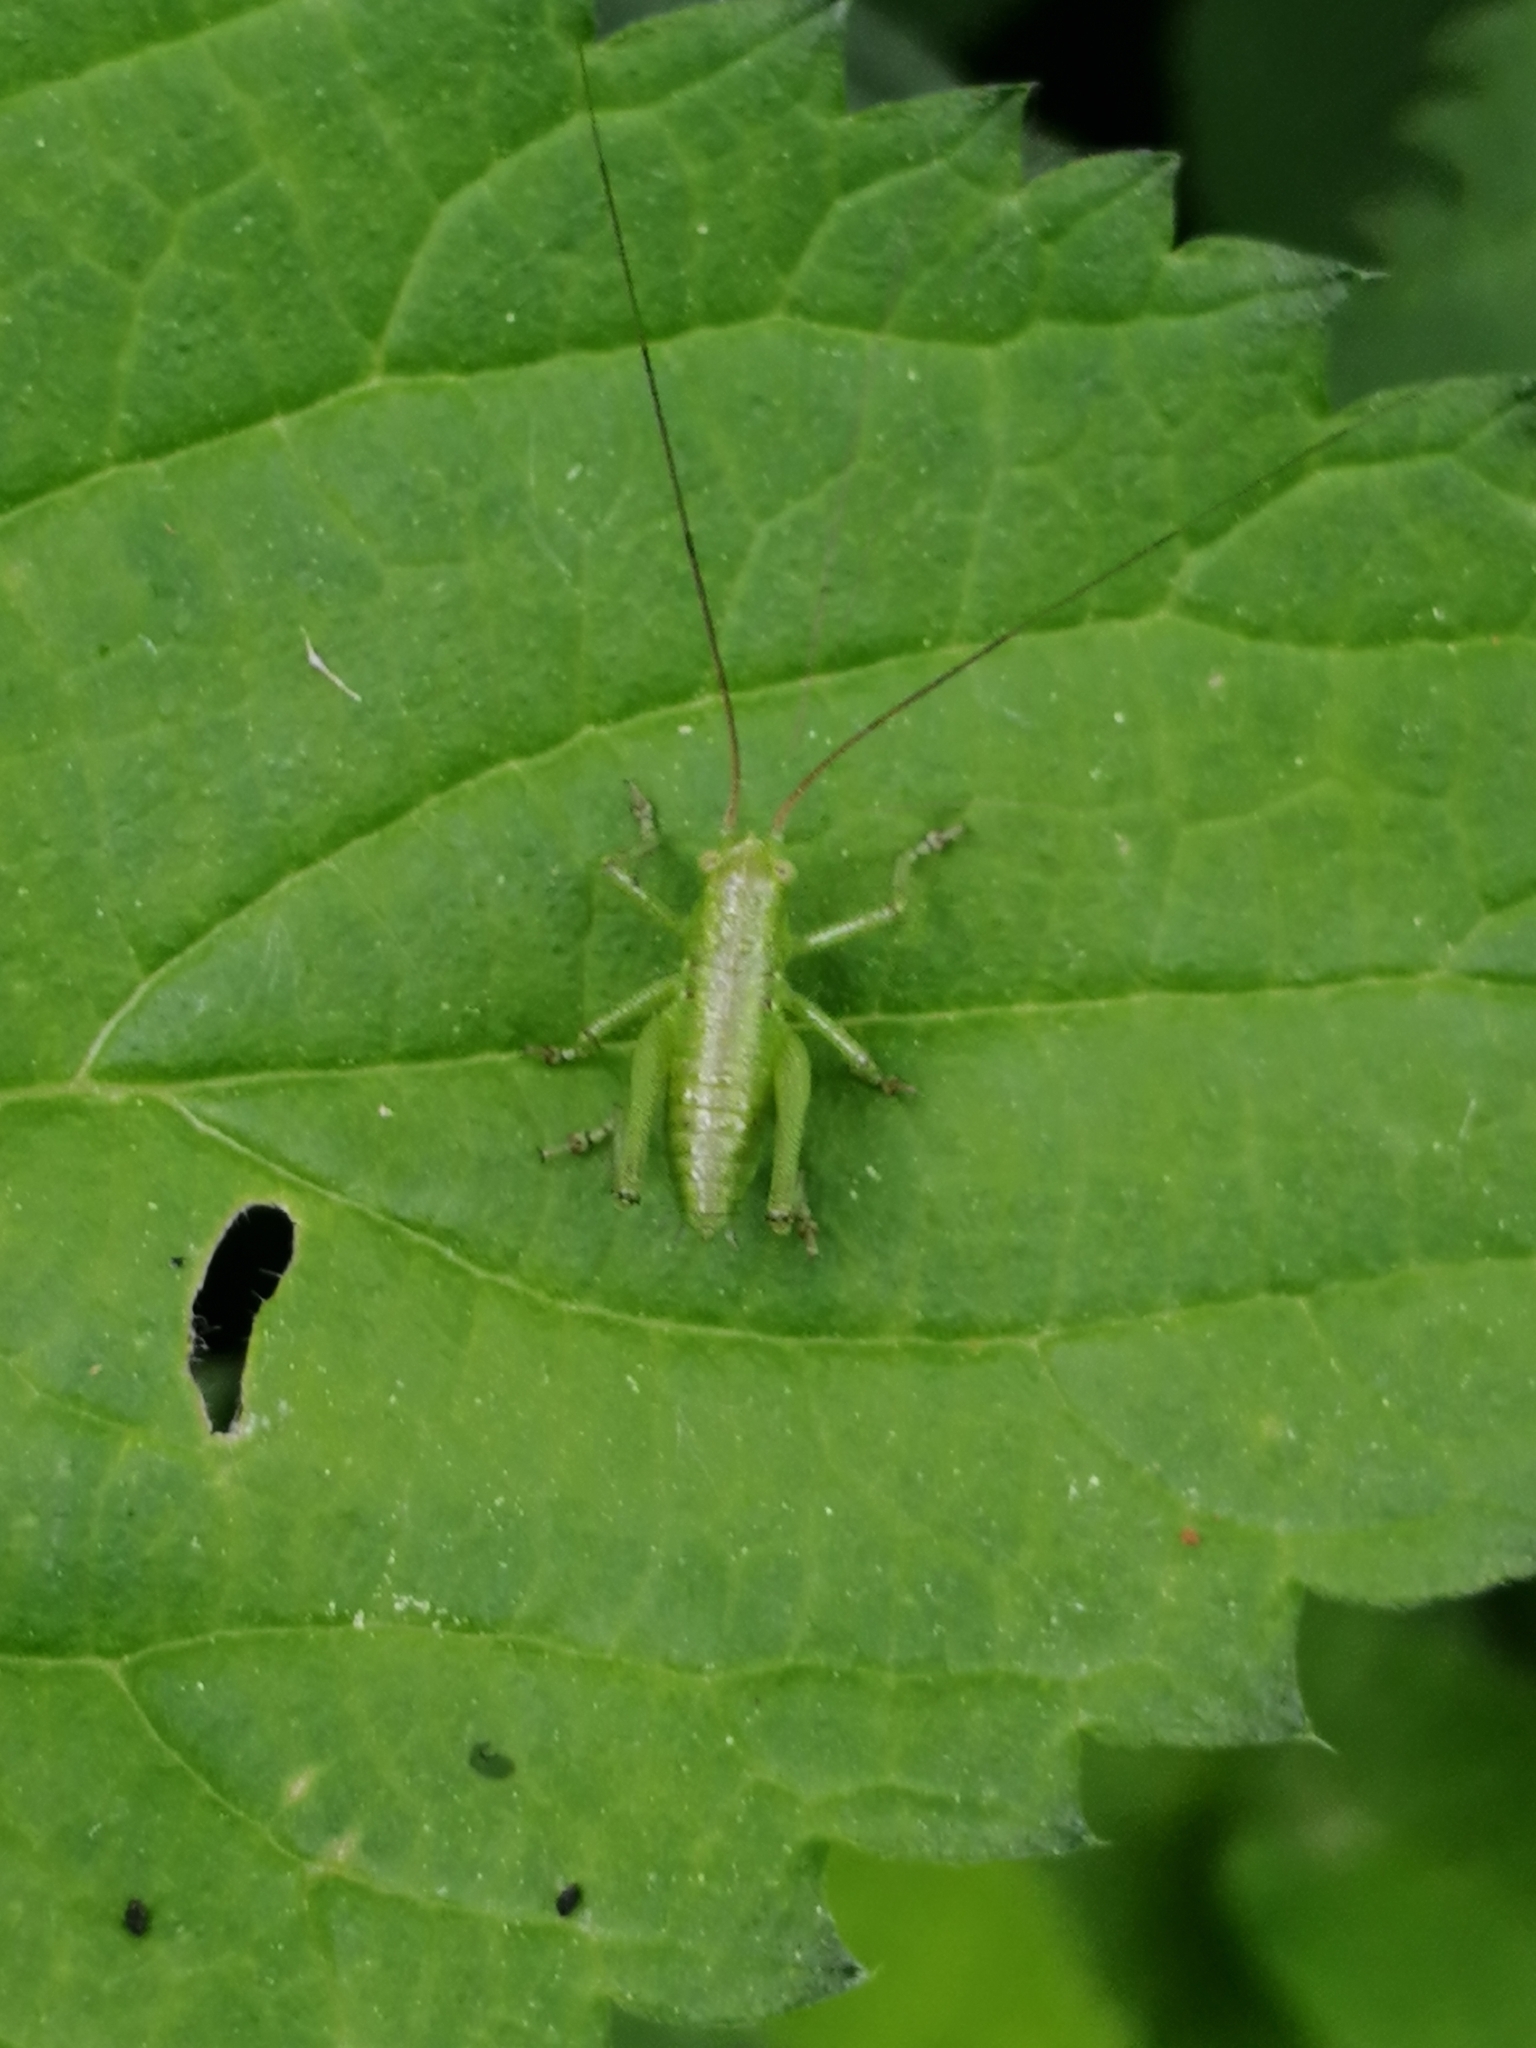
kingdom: Animalia
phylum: Arthropoda
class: Insecta
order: Orthoptera
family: Tettigoniidae
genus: Tettigonia
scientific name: Tettigonia
